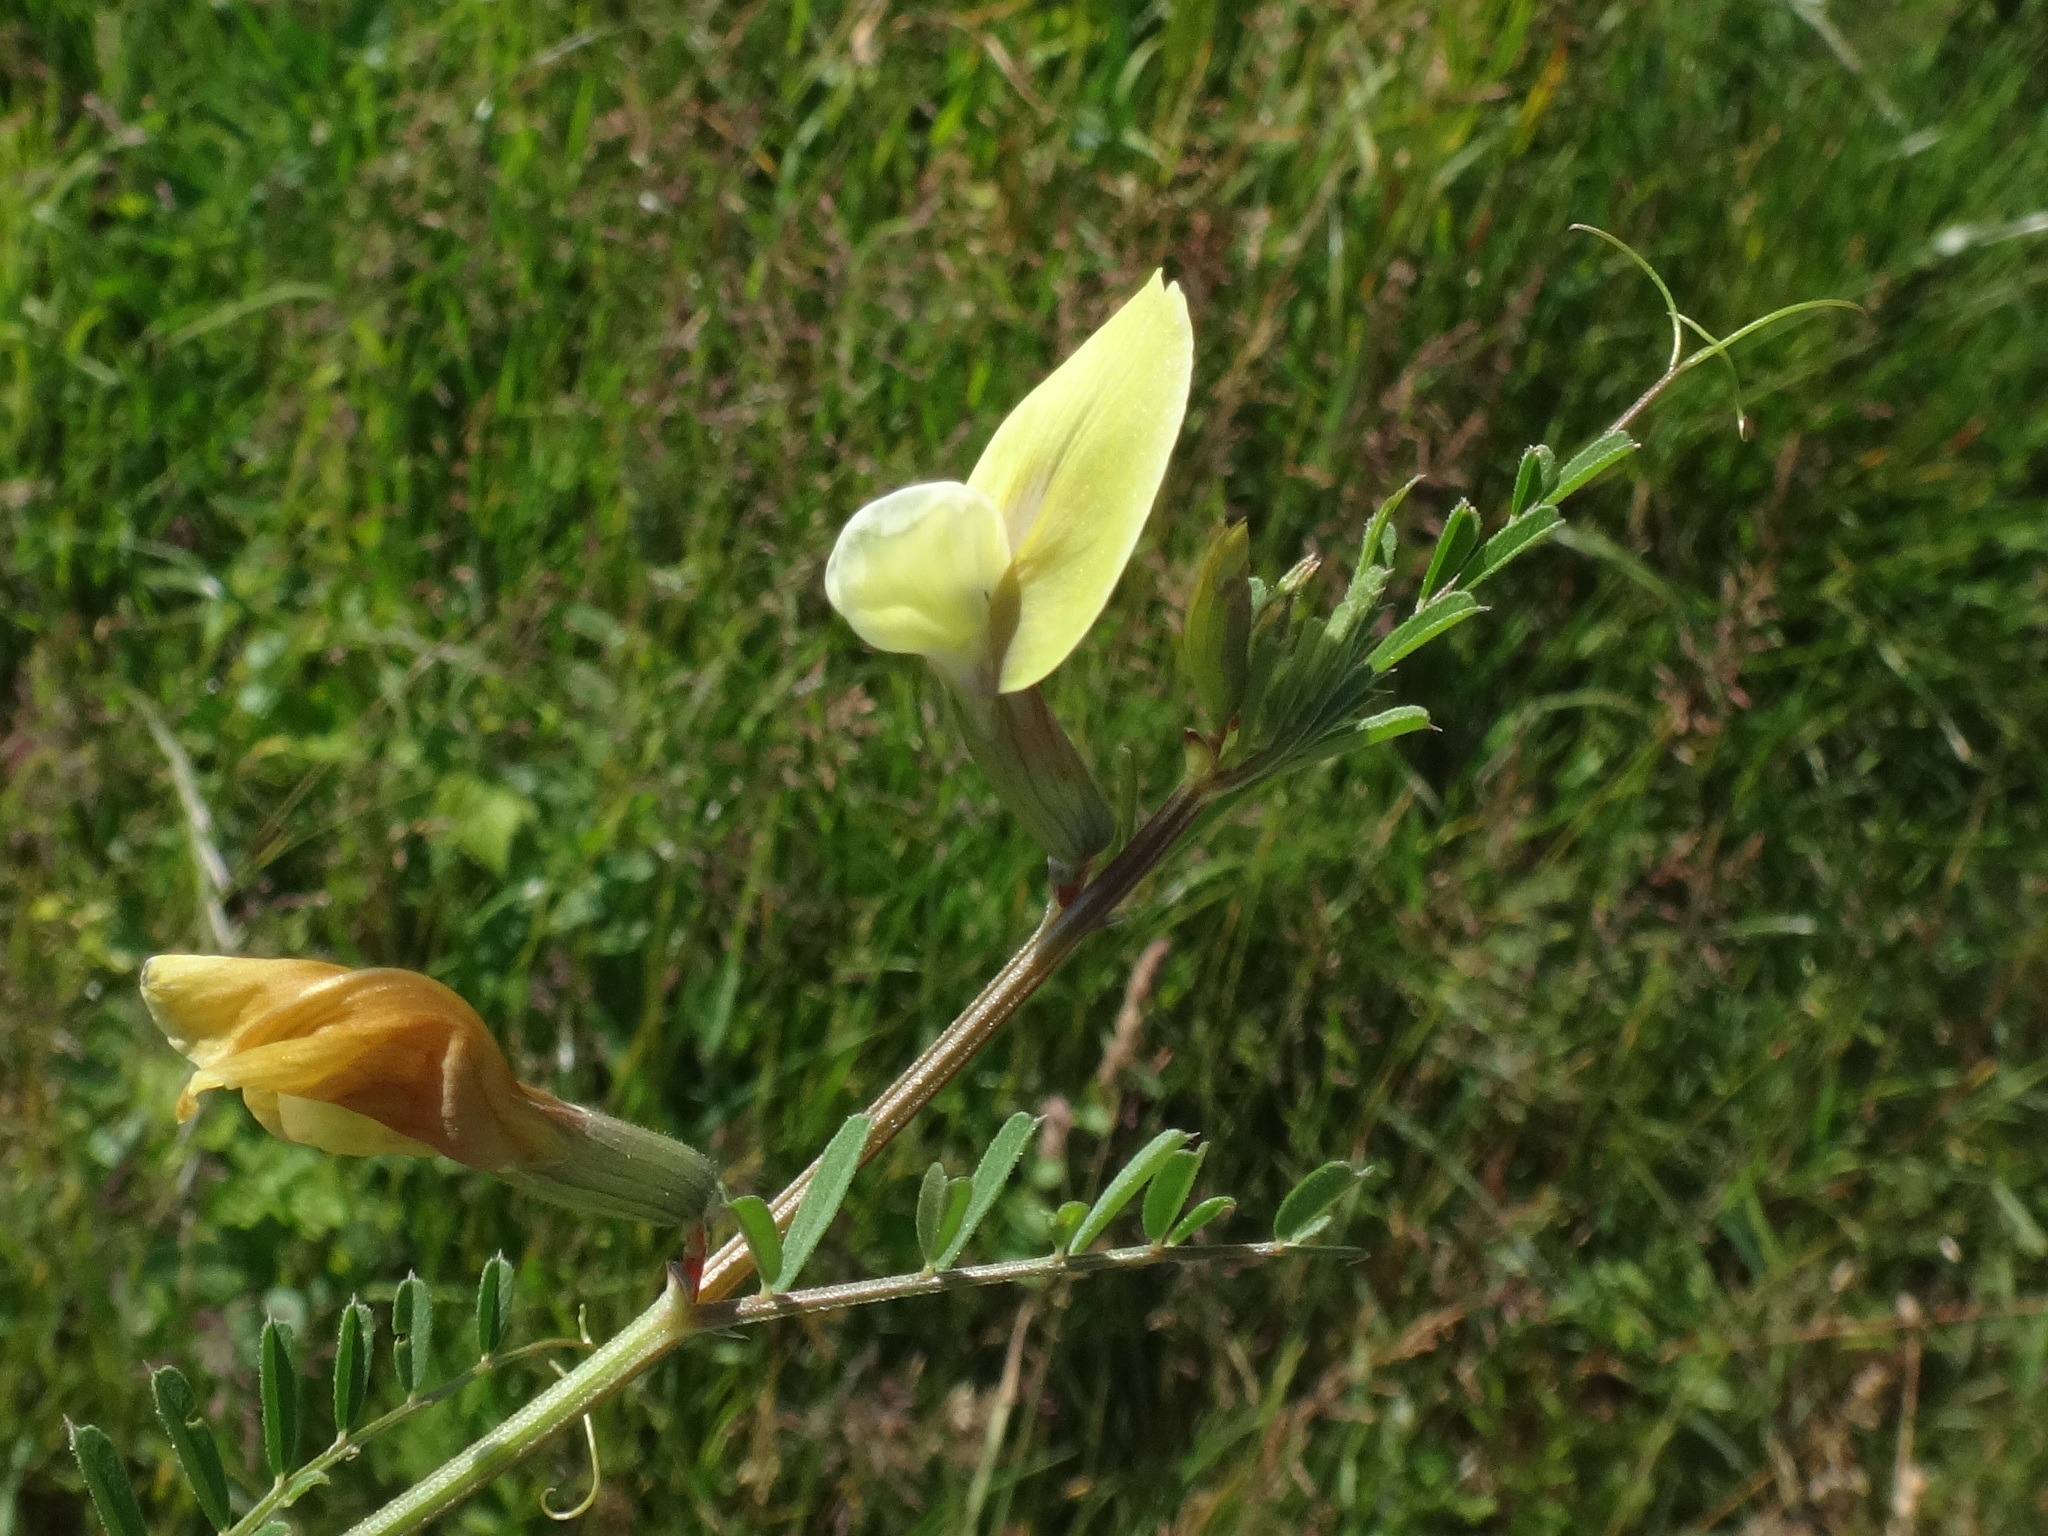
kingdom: Plantae
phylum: Tracheophyta
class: Magnoliopsida
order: Fabales
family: Fabaceae
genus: Vicia
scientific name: Vicia grandiflora
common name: Large yellow vetch
